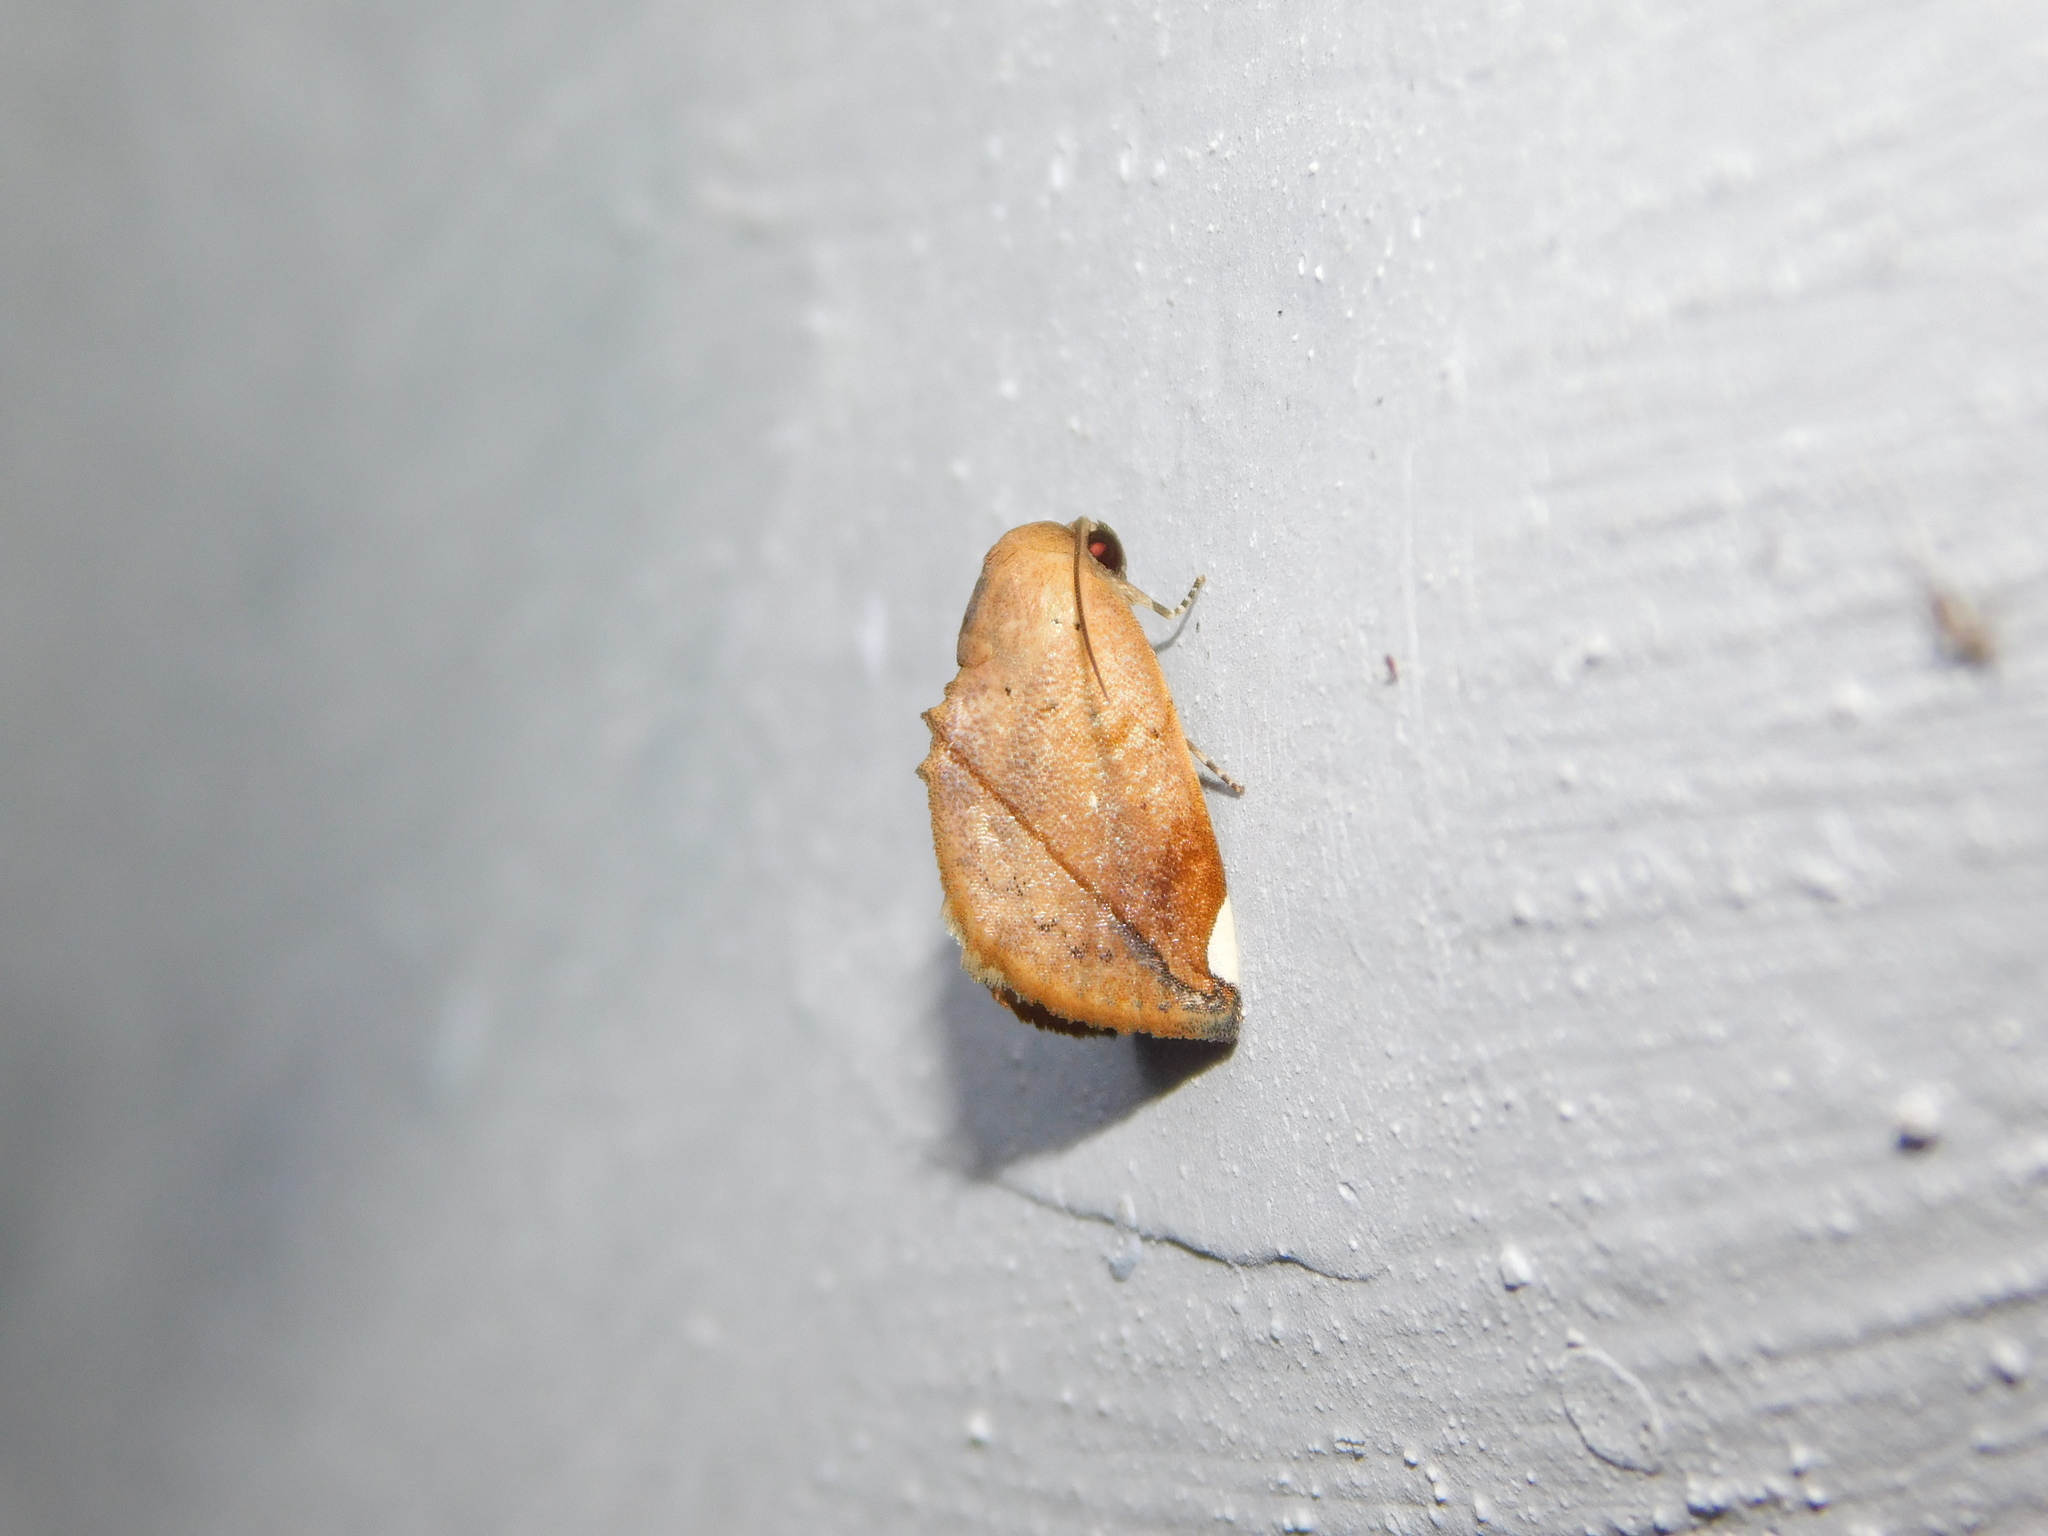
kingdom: Animalia
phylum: Arthropoda
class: Insecta
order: Lepidoptera
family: Nolidae
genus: Negeta
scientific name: Negeta contrariata
